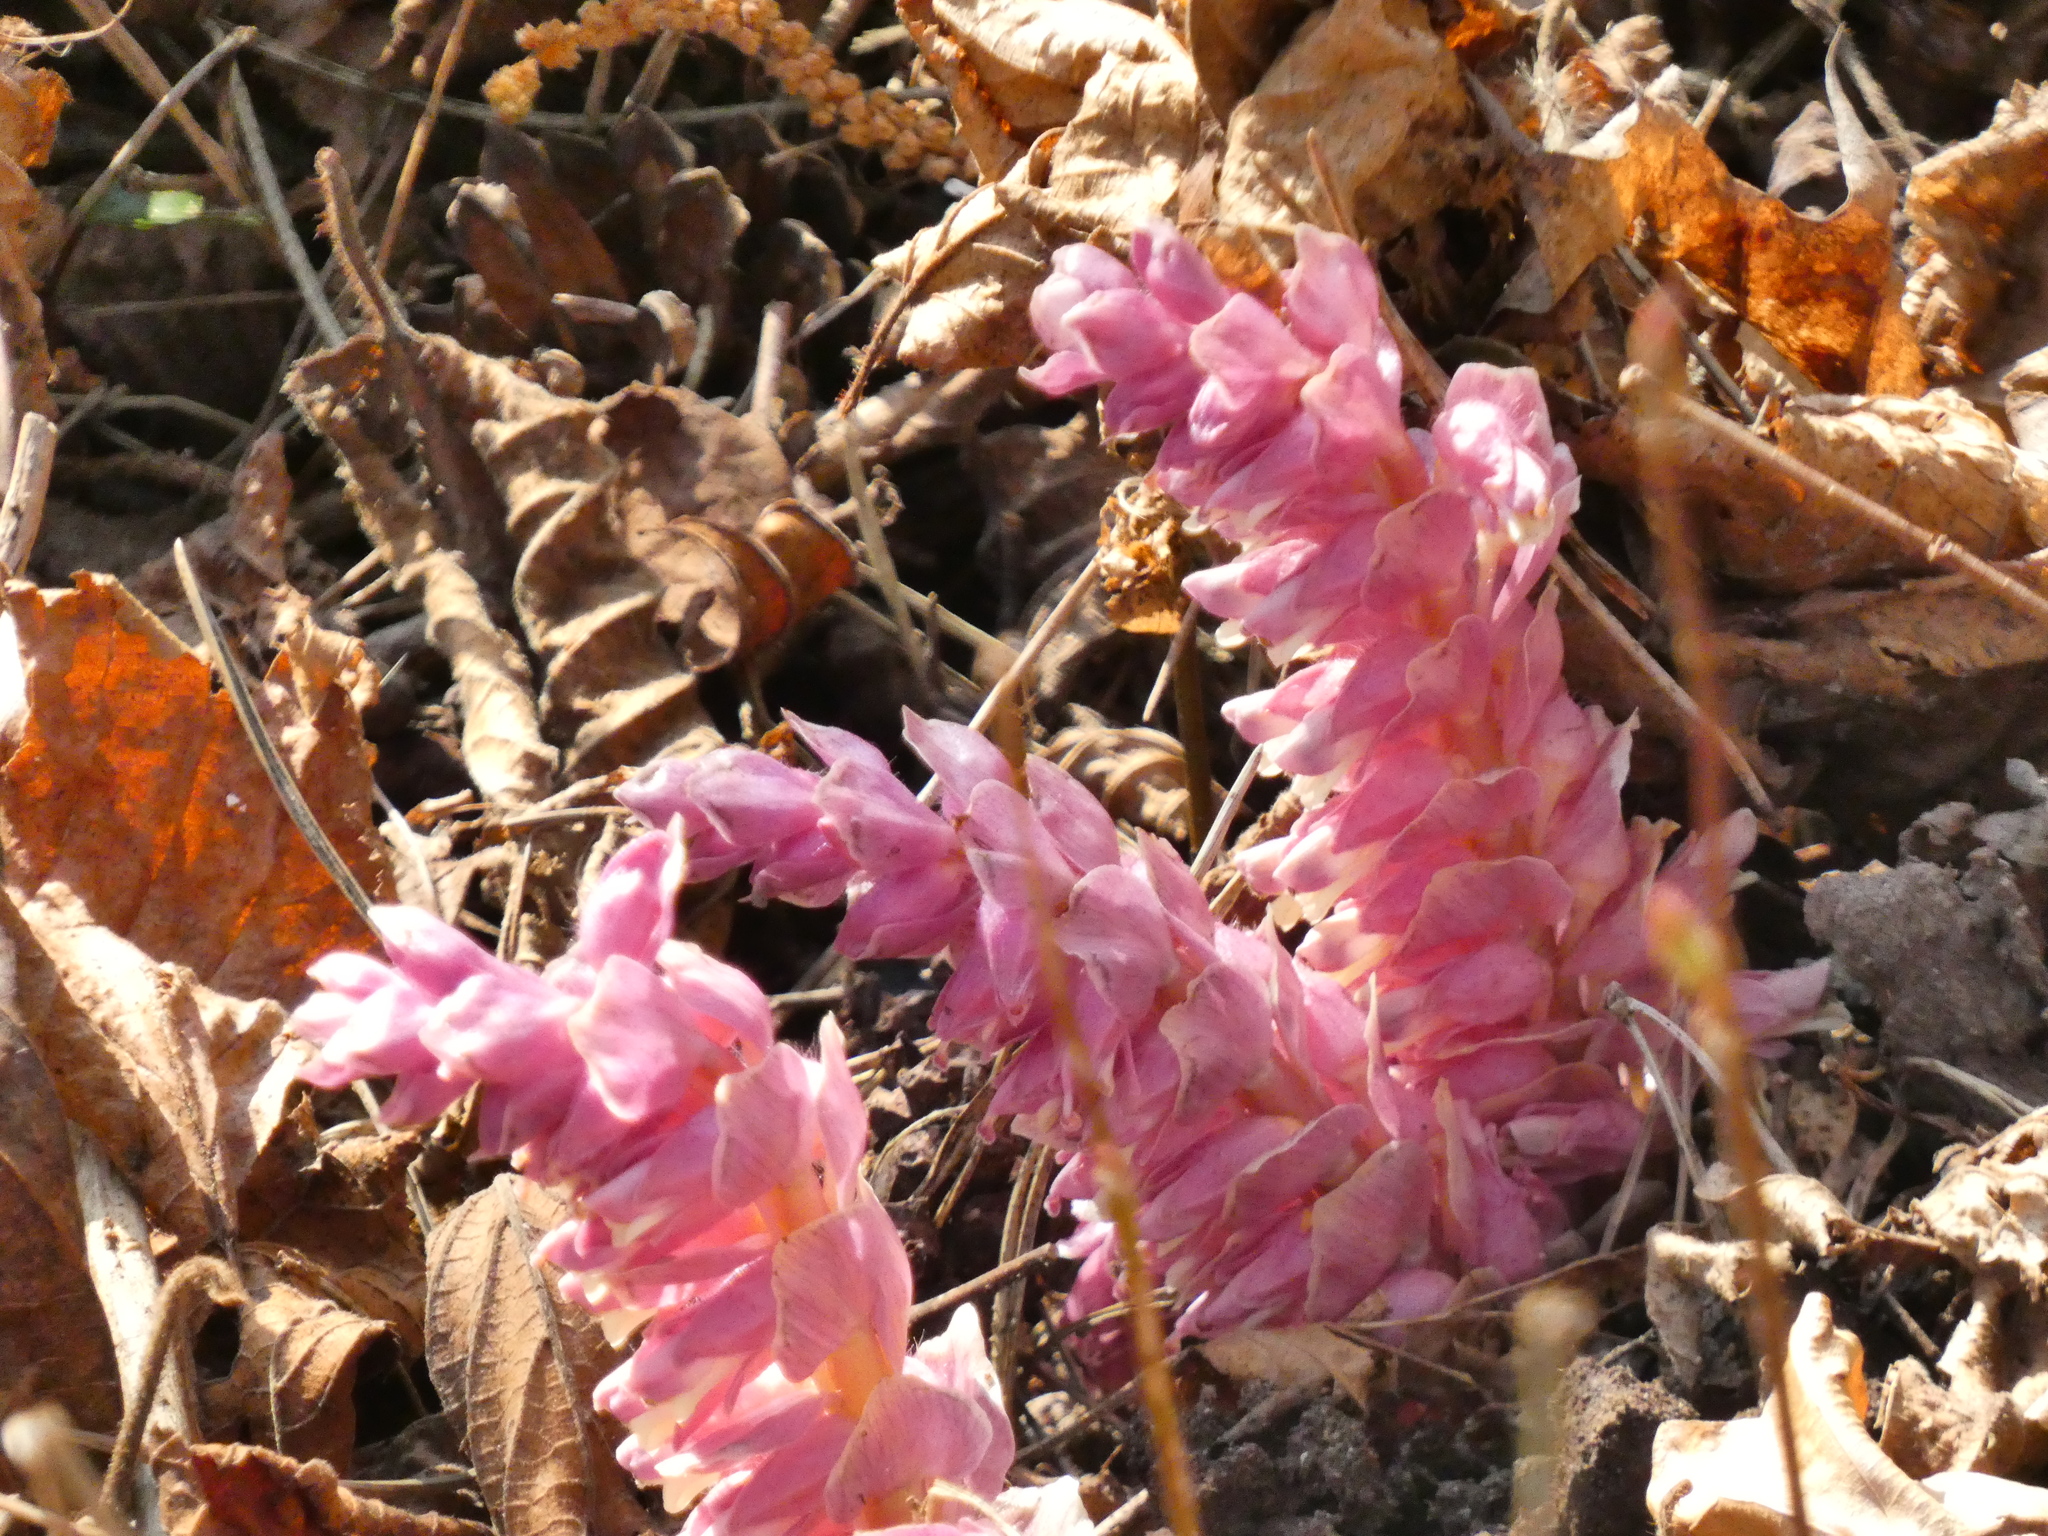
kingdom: Plantae
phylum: Tracheophyta
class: Magnoliopsida
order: Lamiales
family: Orobanchaceae
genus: Lathraea
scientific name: Lathraea squamaria
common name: Toothwort
